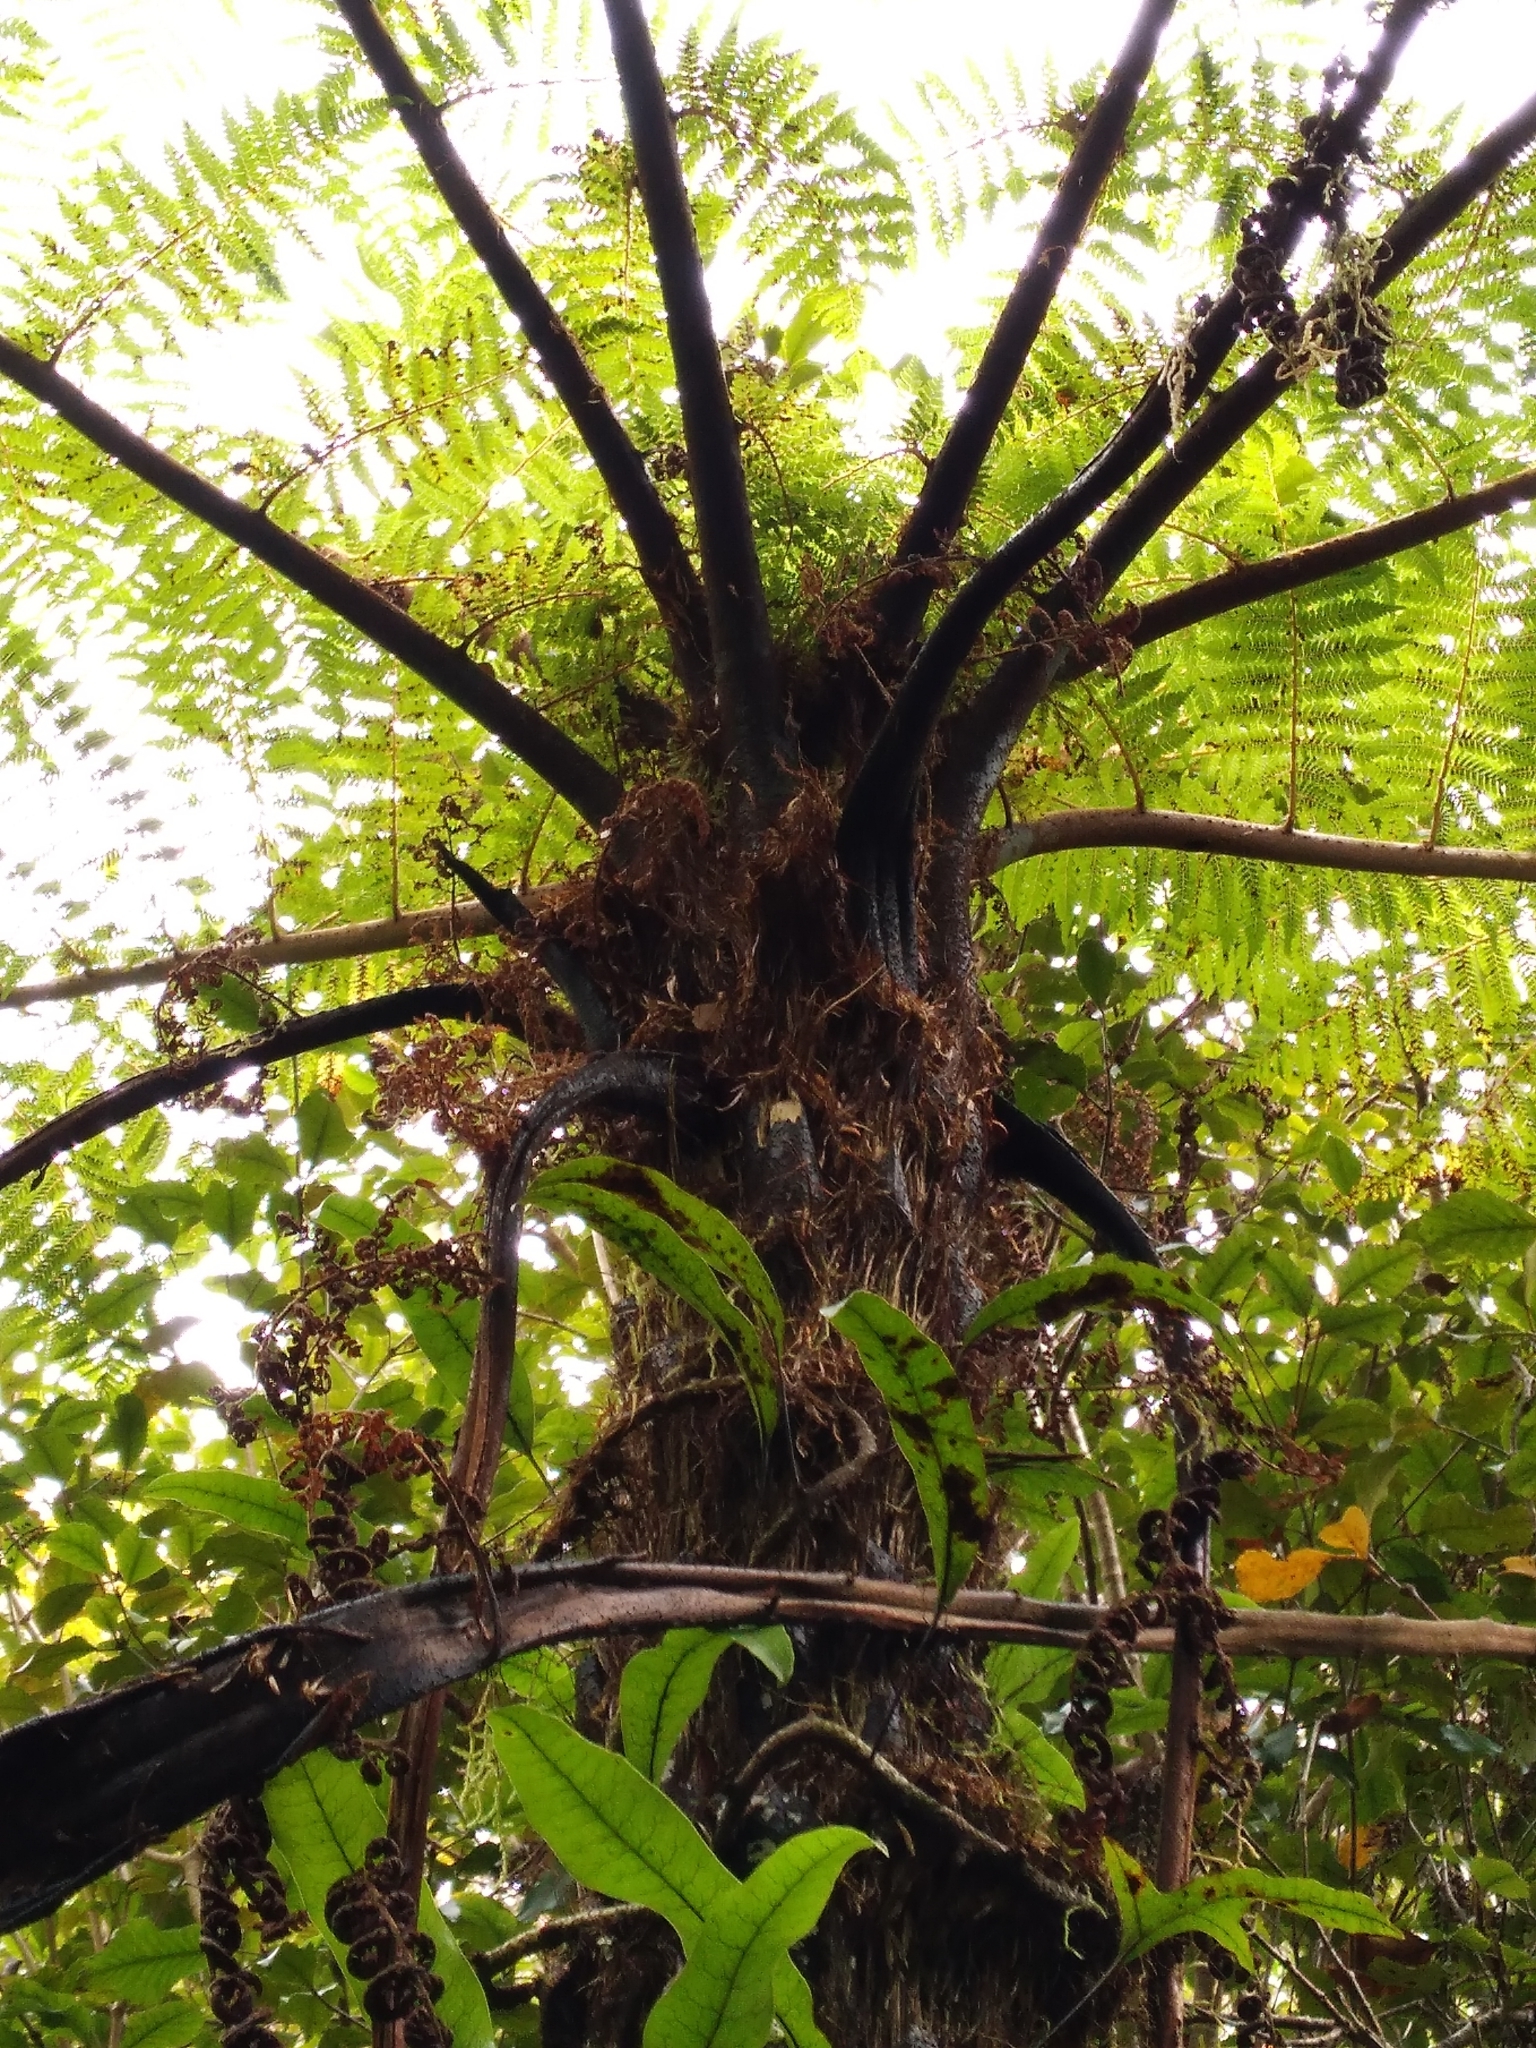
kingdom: Plantae
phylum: Tracheophyta
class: Polypodiopsida
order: Cyatheales
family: Cyatheaceae
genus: Cyathea
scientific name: Cyathea cunninghamii
